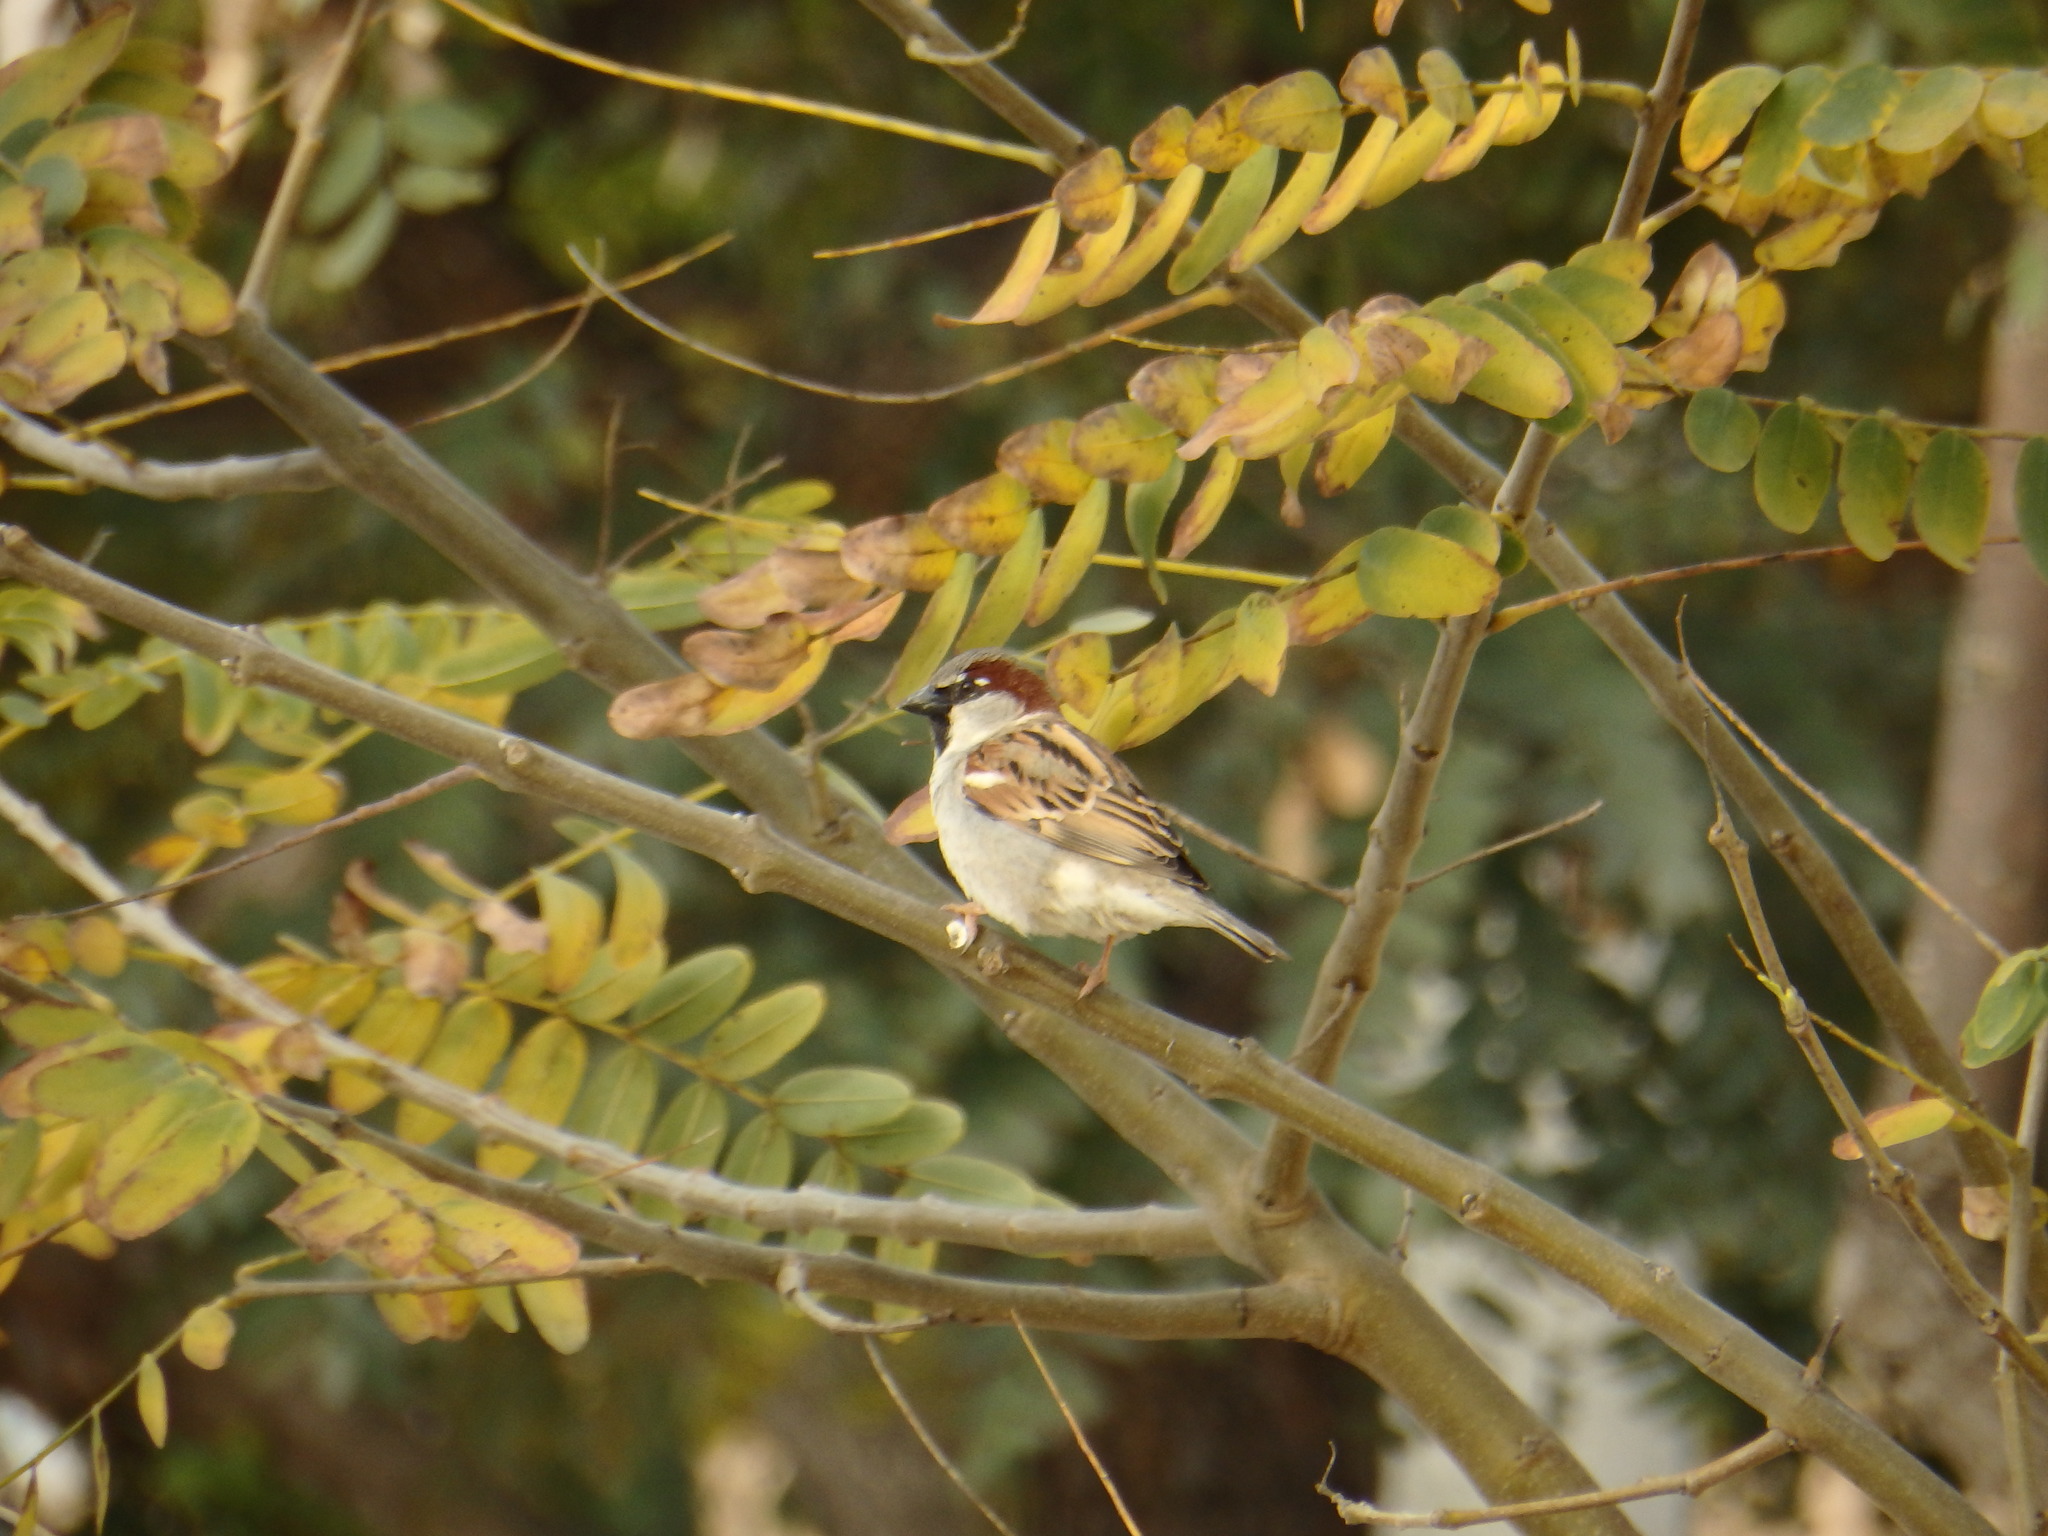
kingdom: Animalia
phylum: Chordata
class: Aves
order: Passeriformes
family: Passeridae
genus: Passer
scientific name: Passer domesticus
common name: House sparrow
